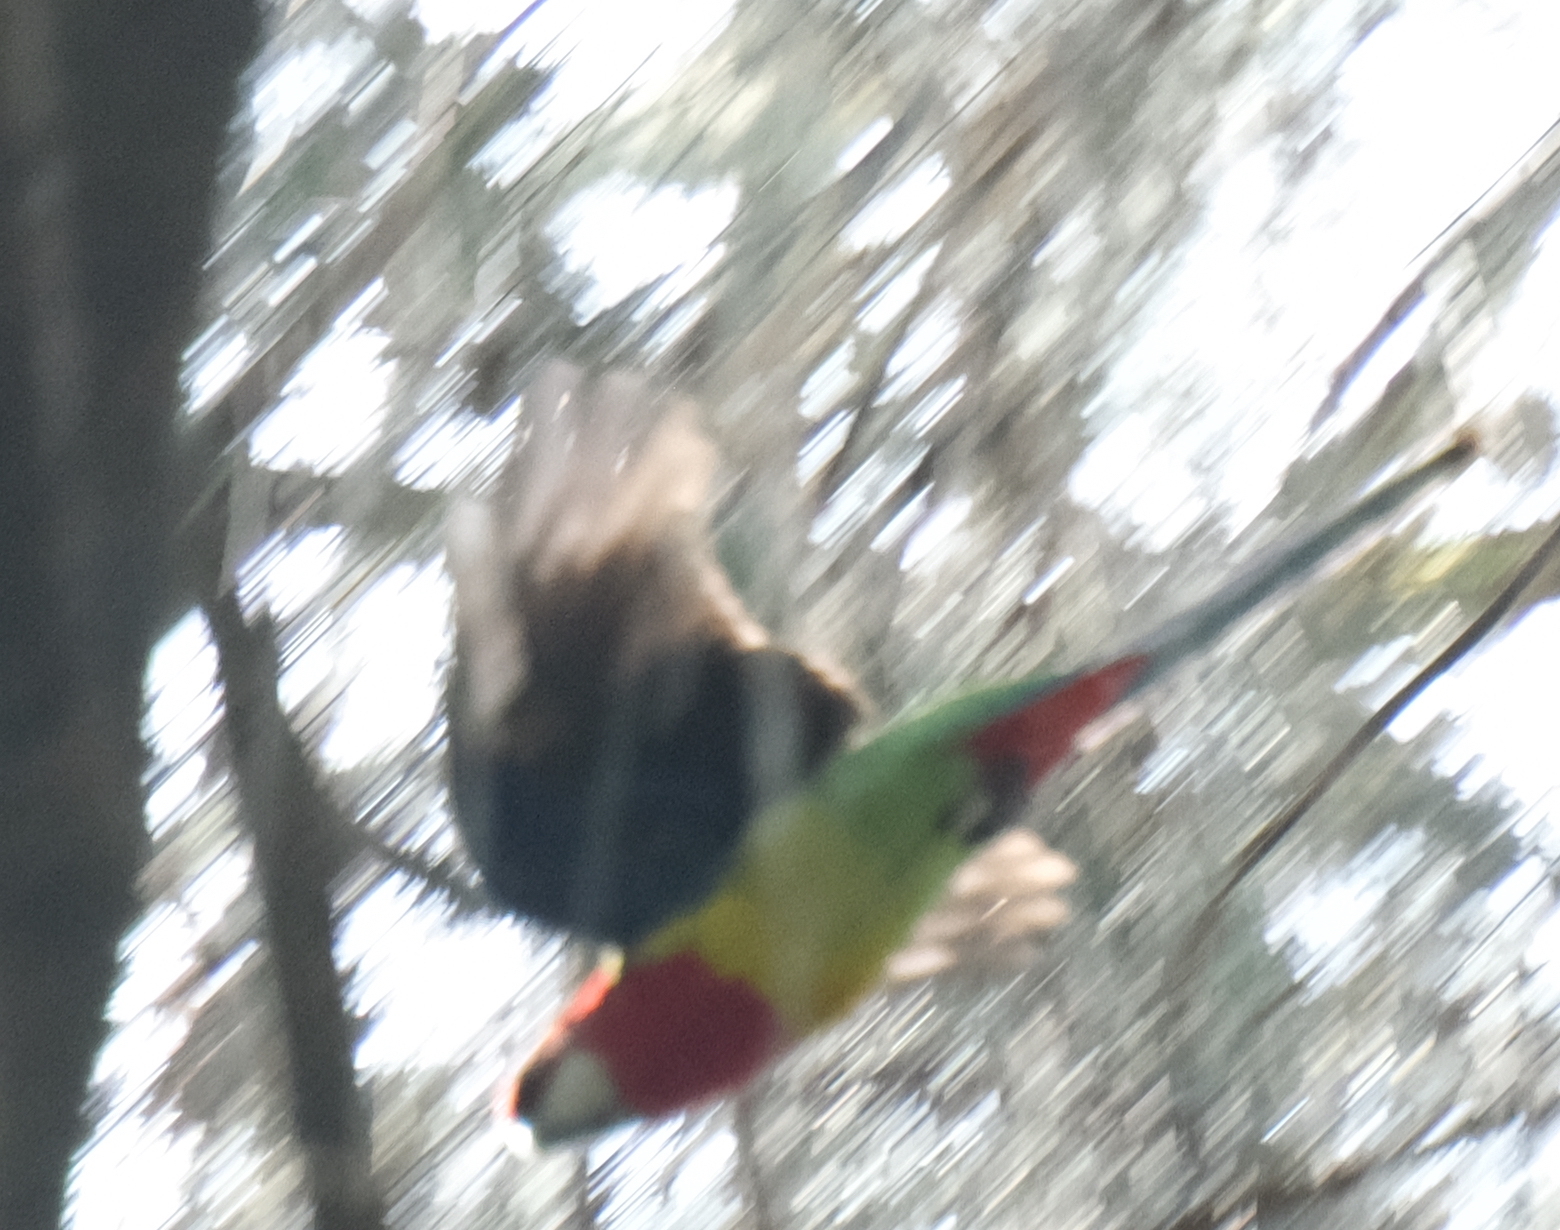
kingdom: Animalia
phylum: Chordata
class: Aves
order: Psittaciformes
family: Psittacidae
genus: Platycercus
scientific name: Platycercus eximius
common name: Eastern rosella
